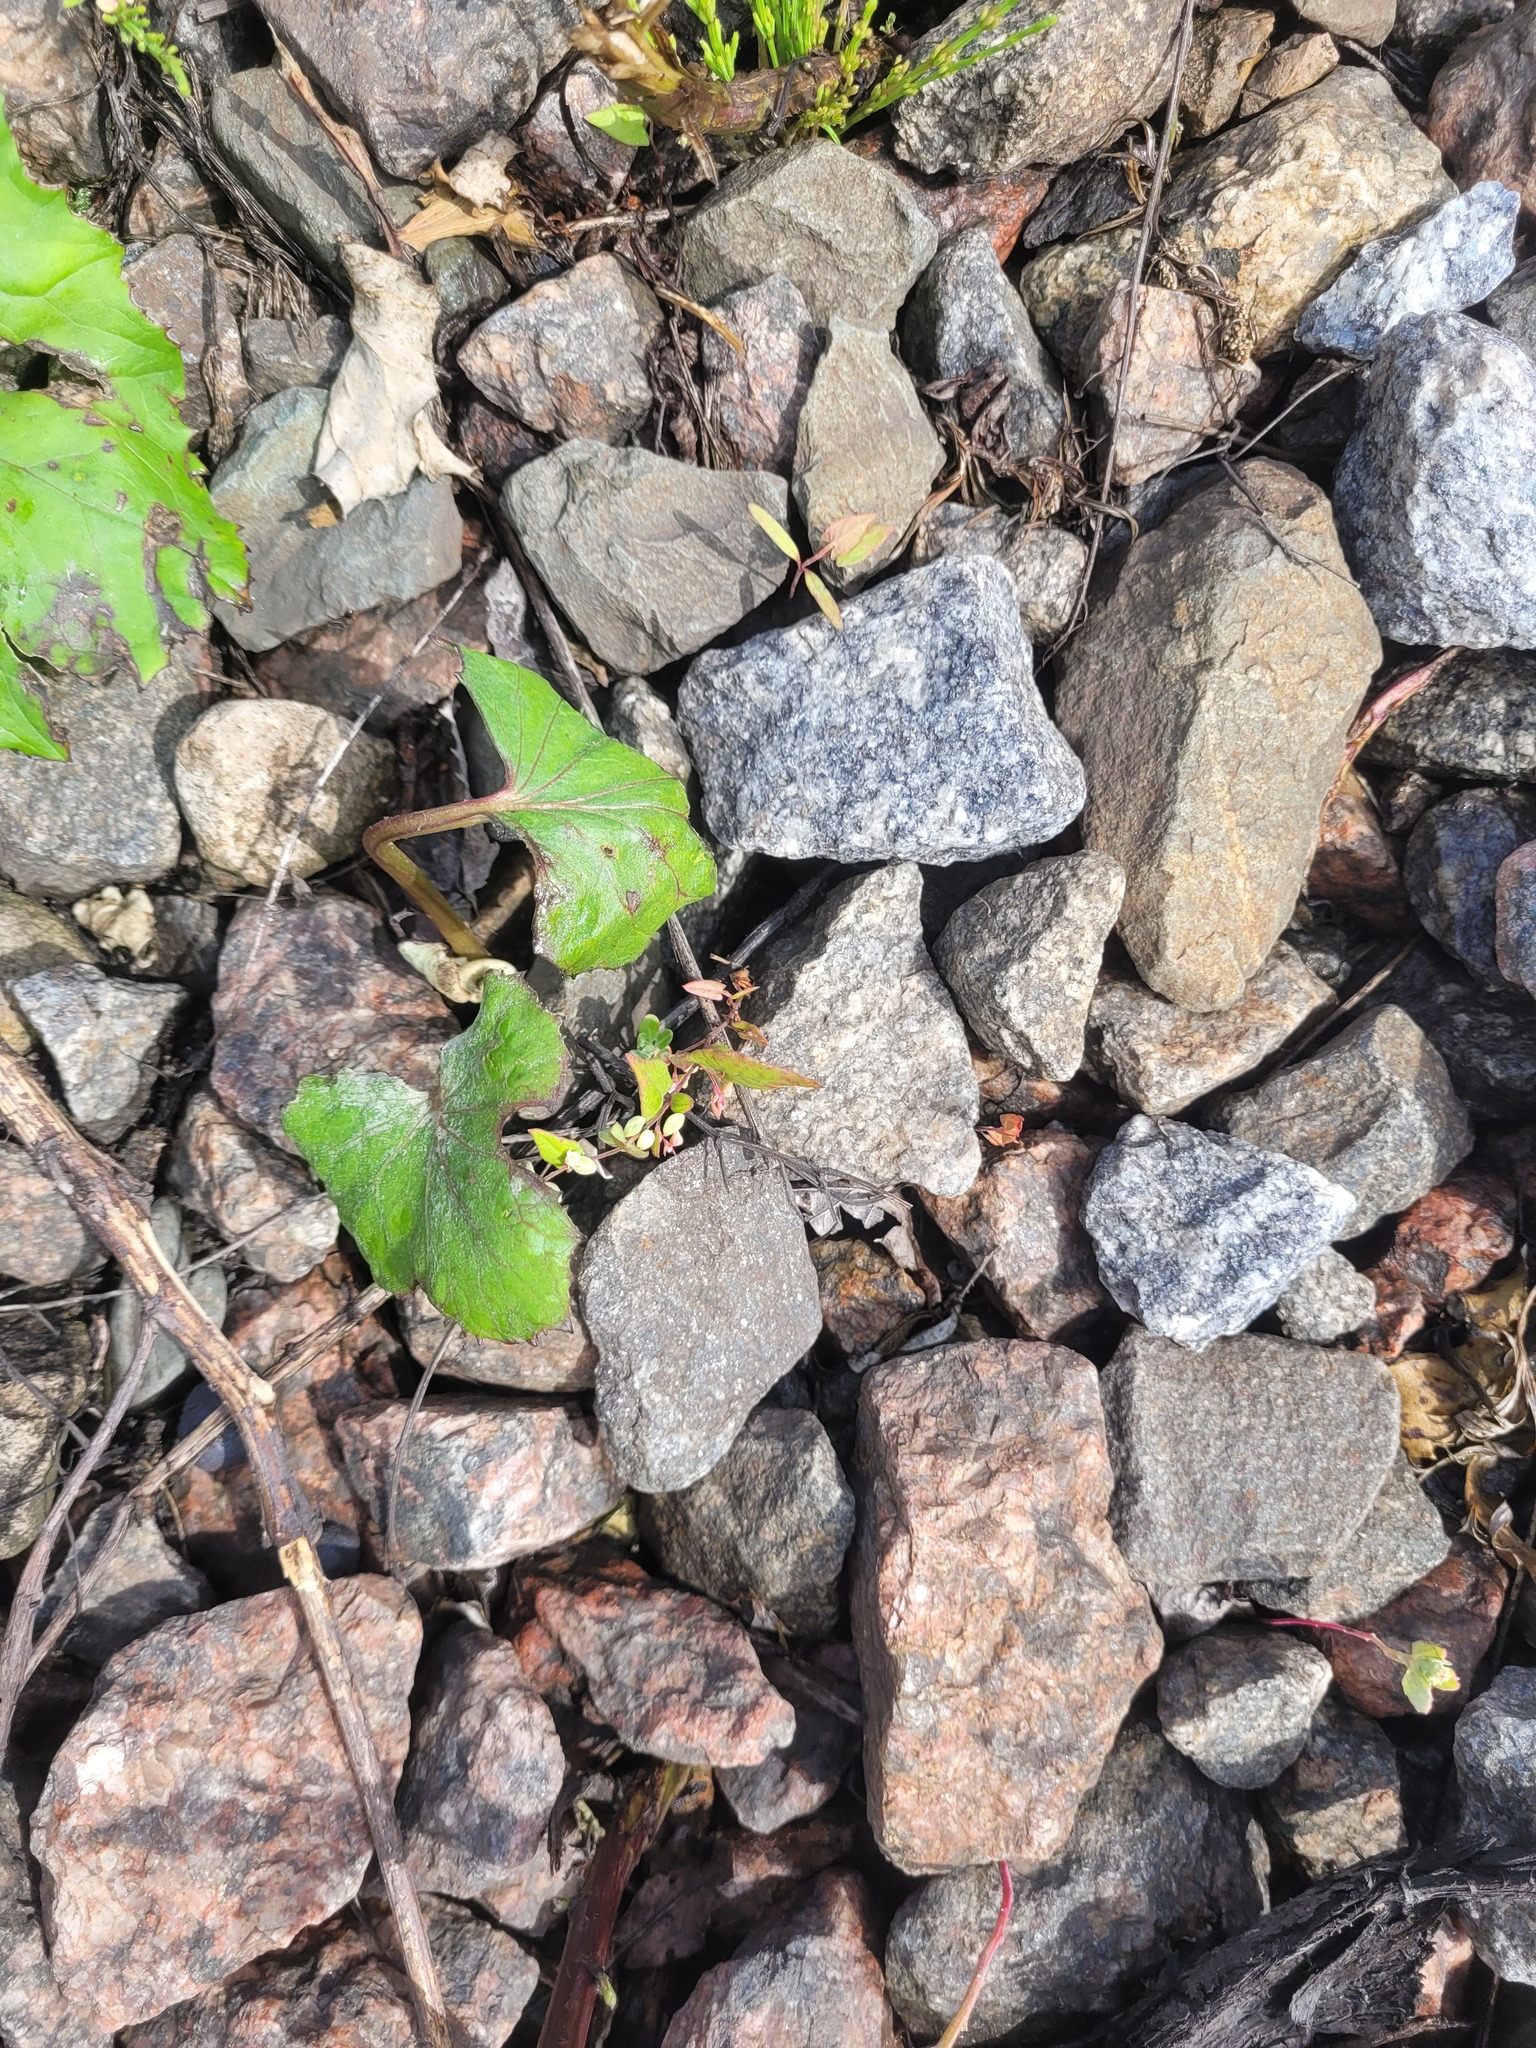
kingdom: Plantae
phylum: Tracheophyta
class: Magnoliopsida
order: Caryophyllales
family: Polygonaceae
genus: Fallopia
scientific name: Fallopia convolvulus
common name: Black bindweed
